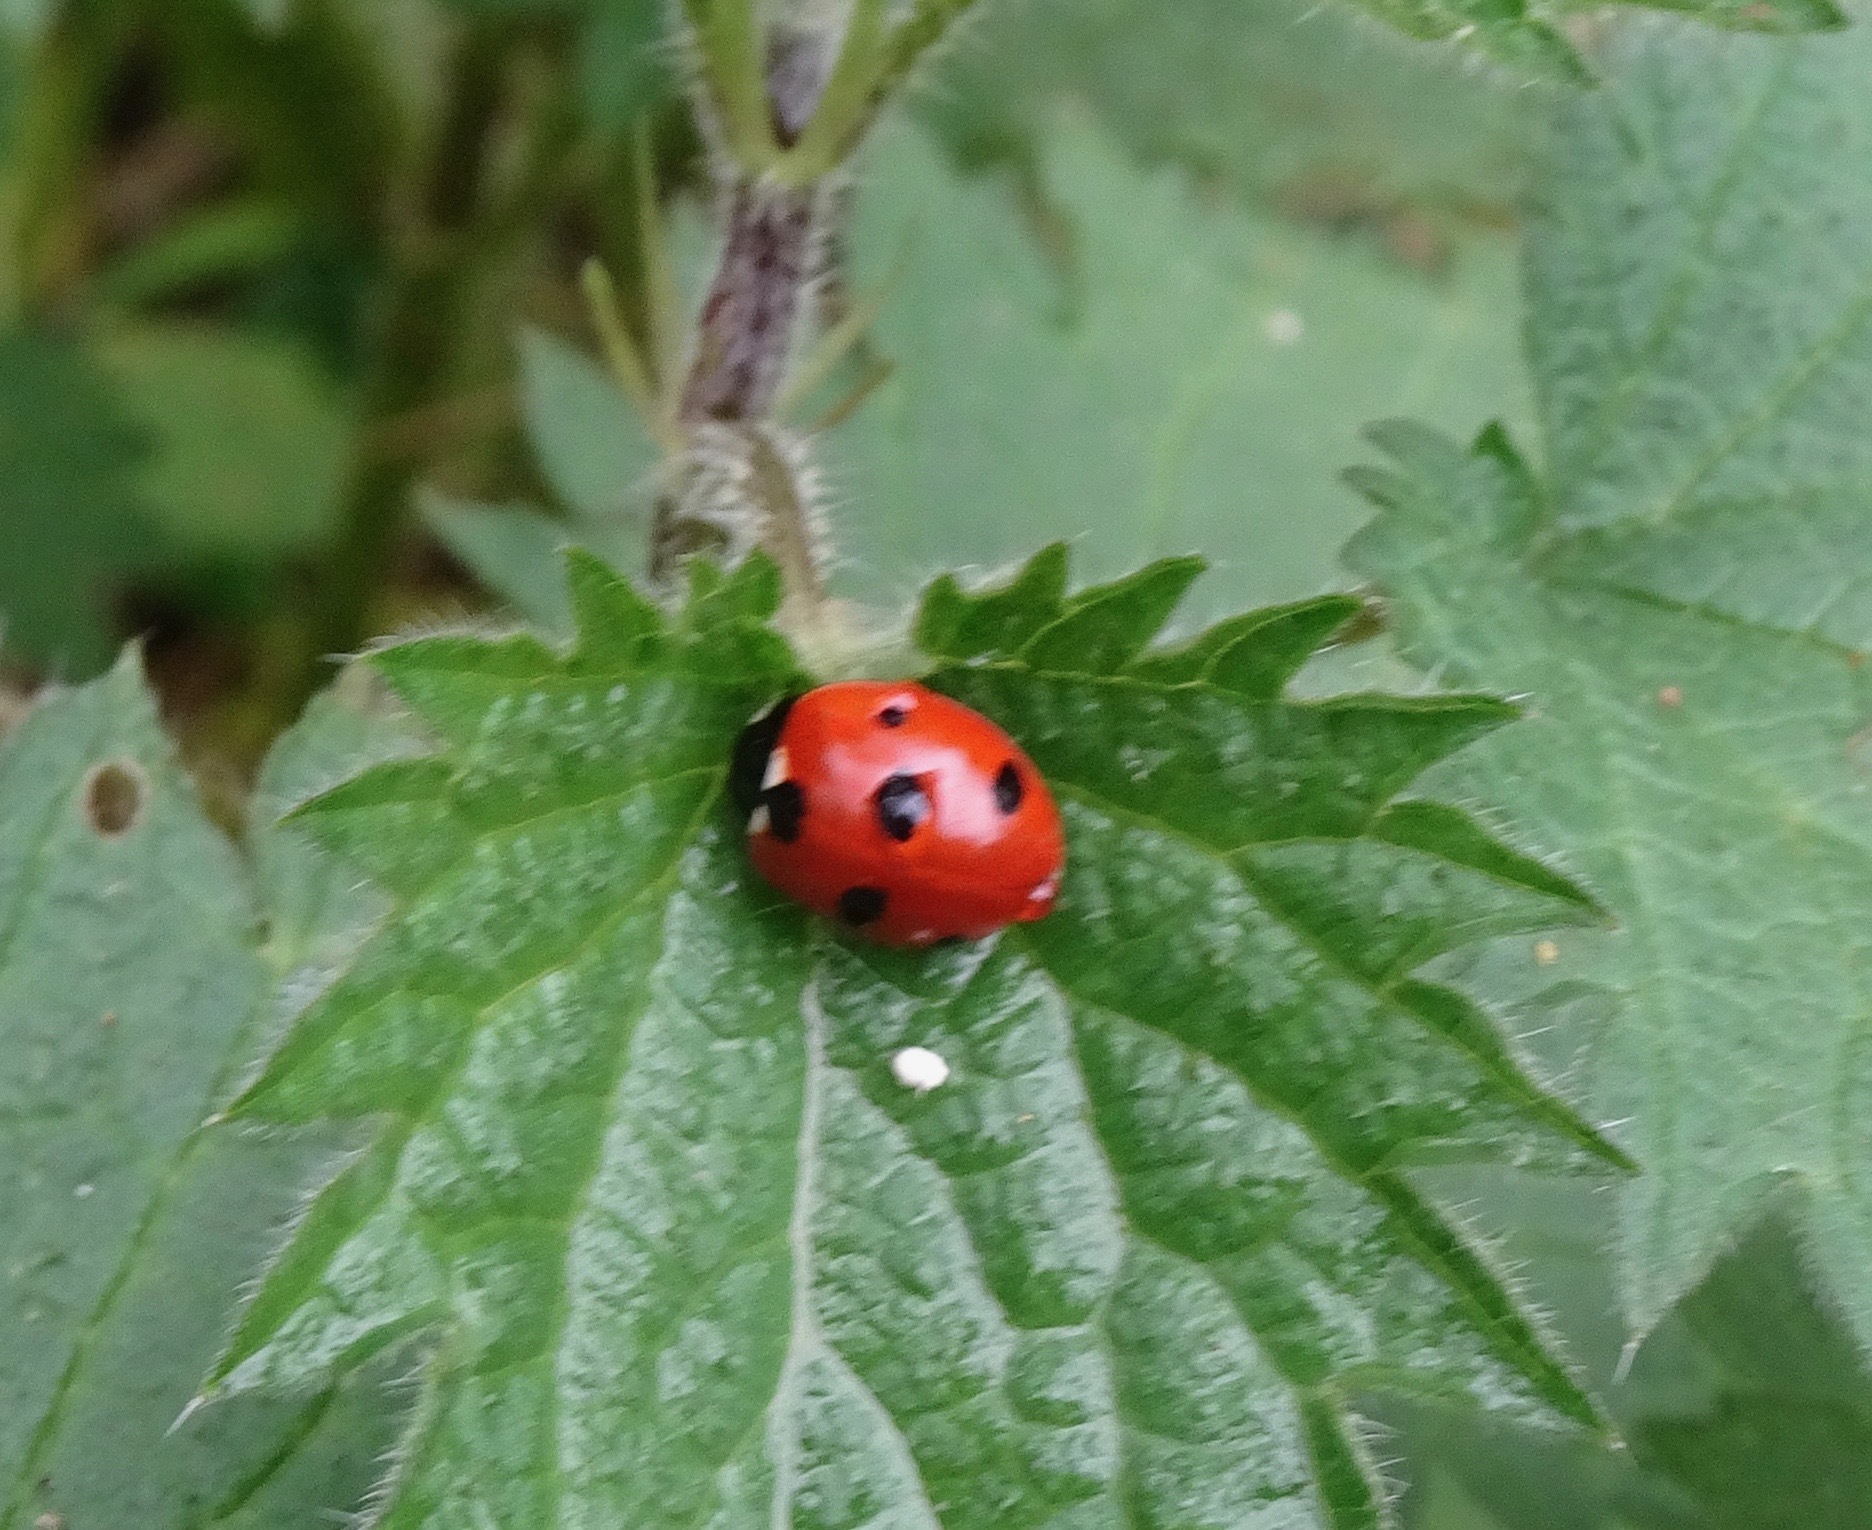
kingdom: Animalia
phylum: Arthropoda
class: Insecta
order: Coleoptera
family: Coccinellidae
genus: Coccinella
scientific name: Coccinella septempunctata
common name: Sevenspotted lady beetle
